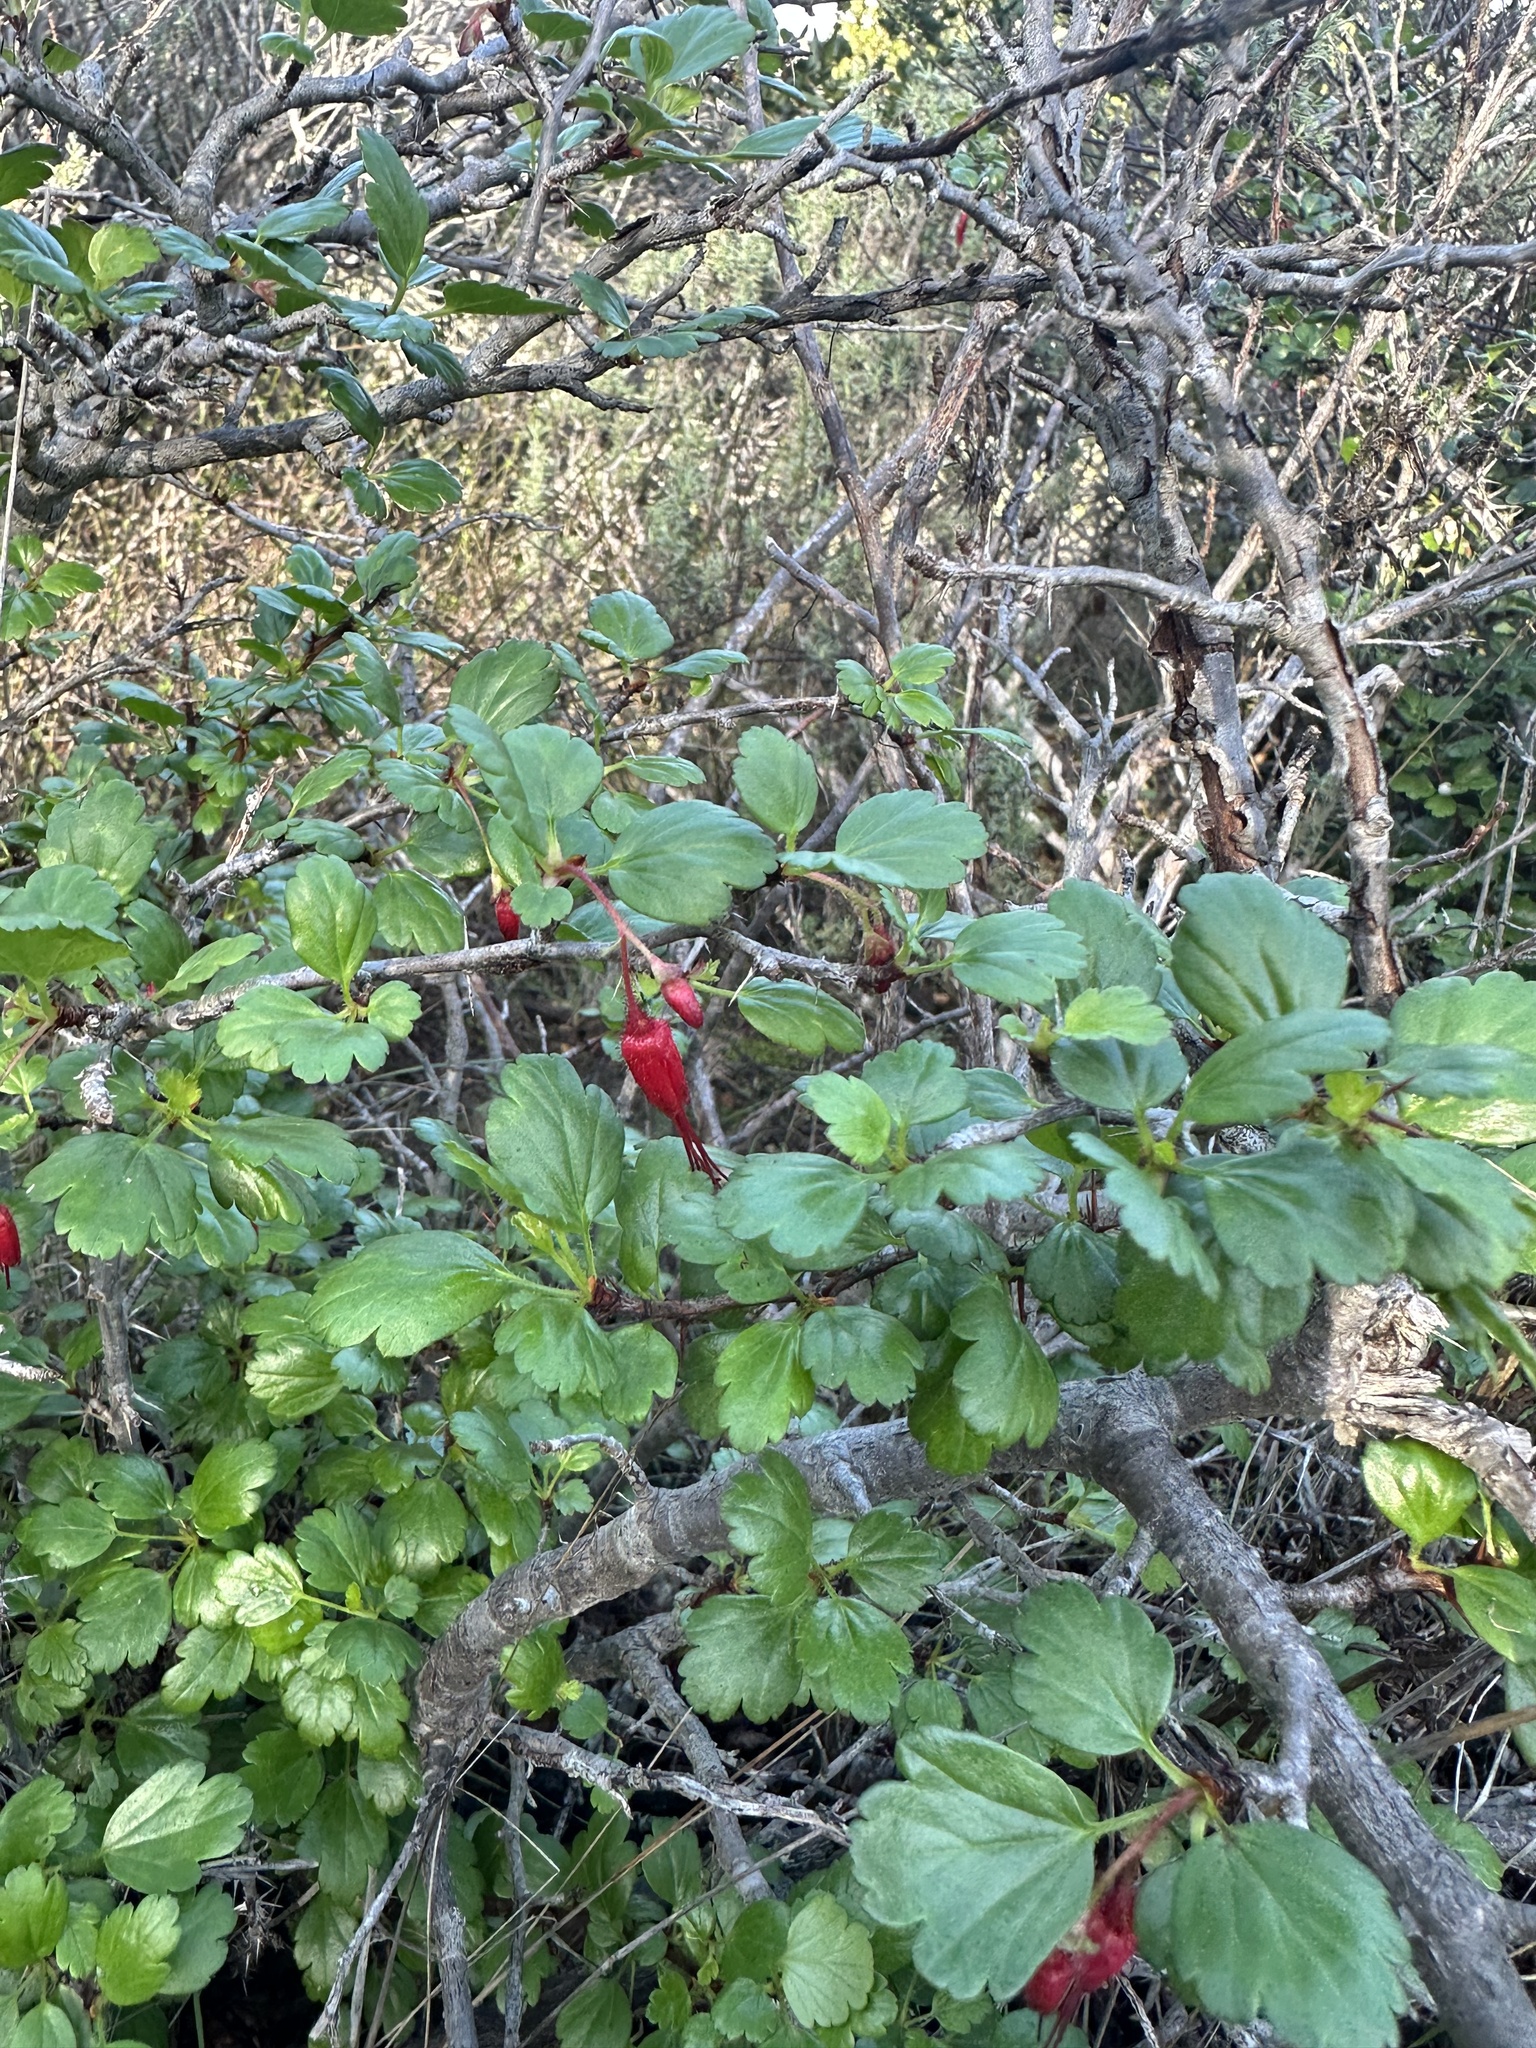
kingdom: Plantae
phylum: Tracheophyta
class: Magnoliopsida
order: Saxifragales
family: Grossulariaceae
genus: Ribes
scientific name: Ribes speciosum
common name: Fuchsia-flower gooseberry
